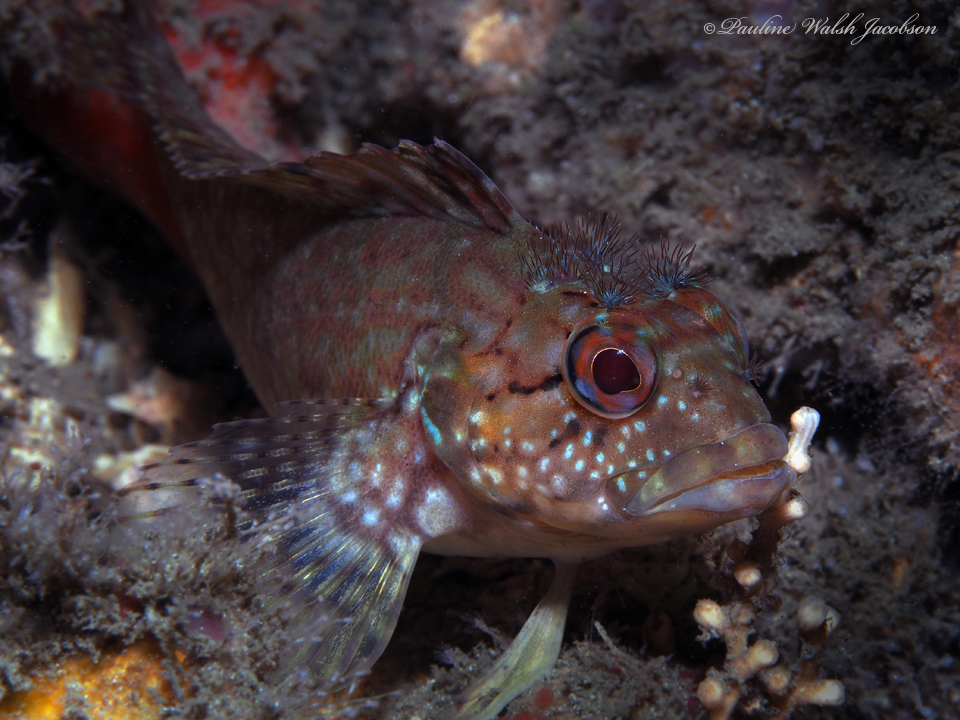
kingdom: Animalia
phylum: Chordata
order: Perciformes
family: Labrisomidae
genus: Labrisomus
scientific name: Labrisomus conditus
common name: Masquerader hairy blenny
